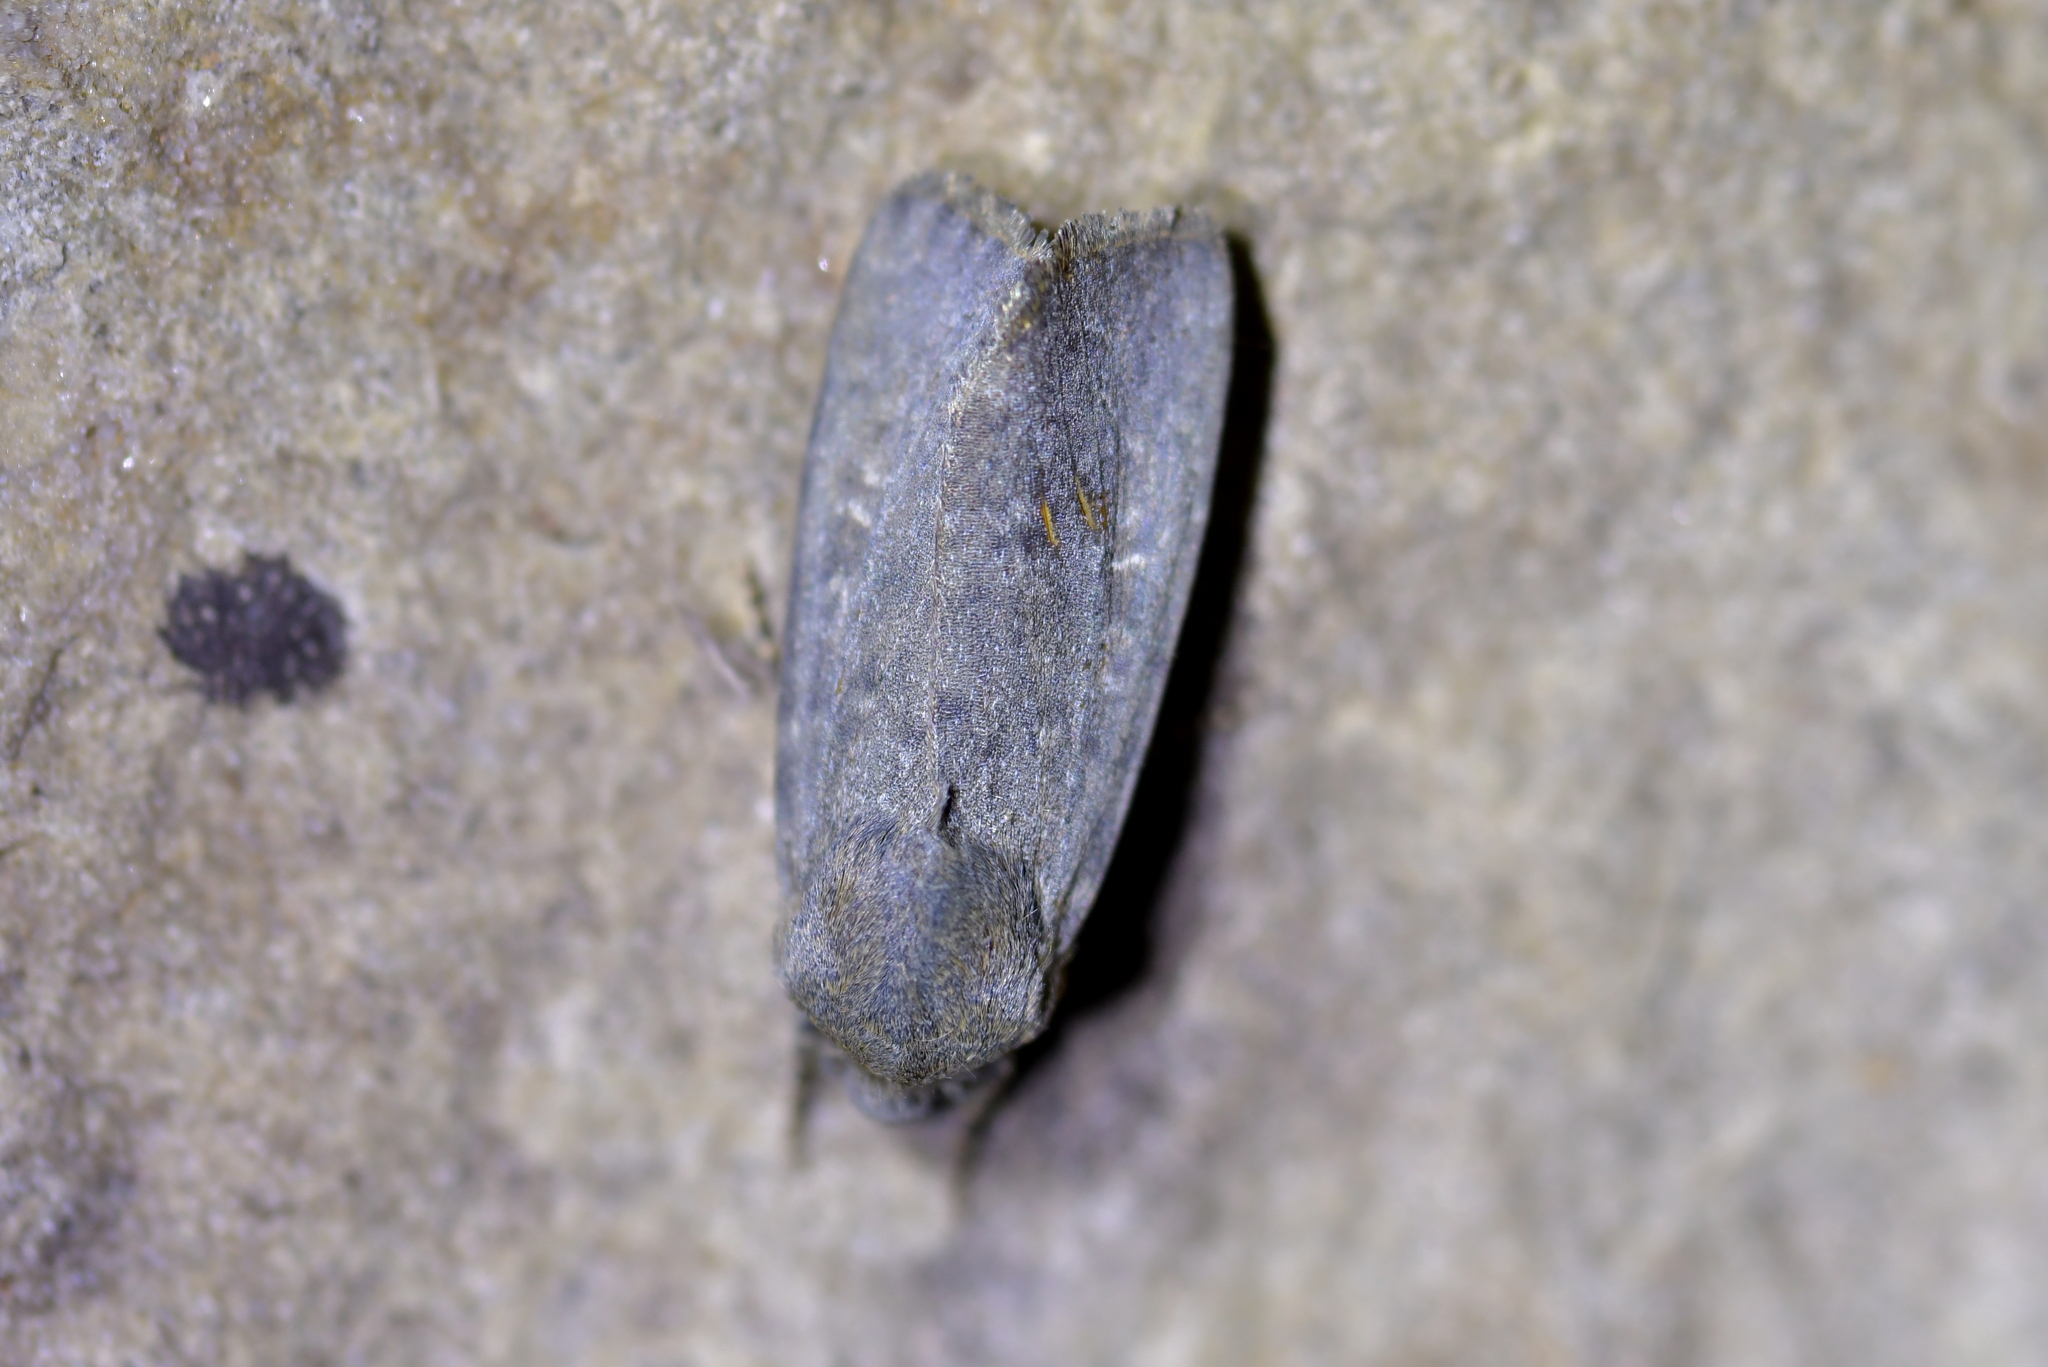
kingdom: Animalia
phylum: Arthropoda
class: Insecta
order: Lepidoptera
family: Noctuidae
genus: Physetica
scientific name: Physetica caerulea
